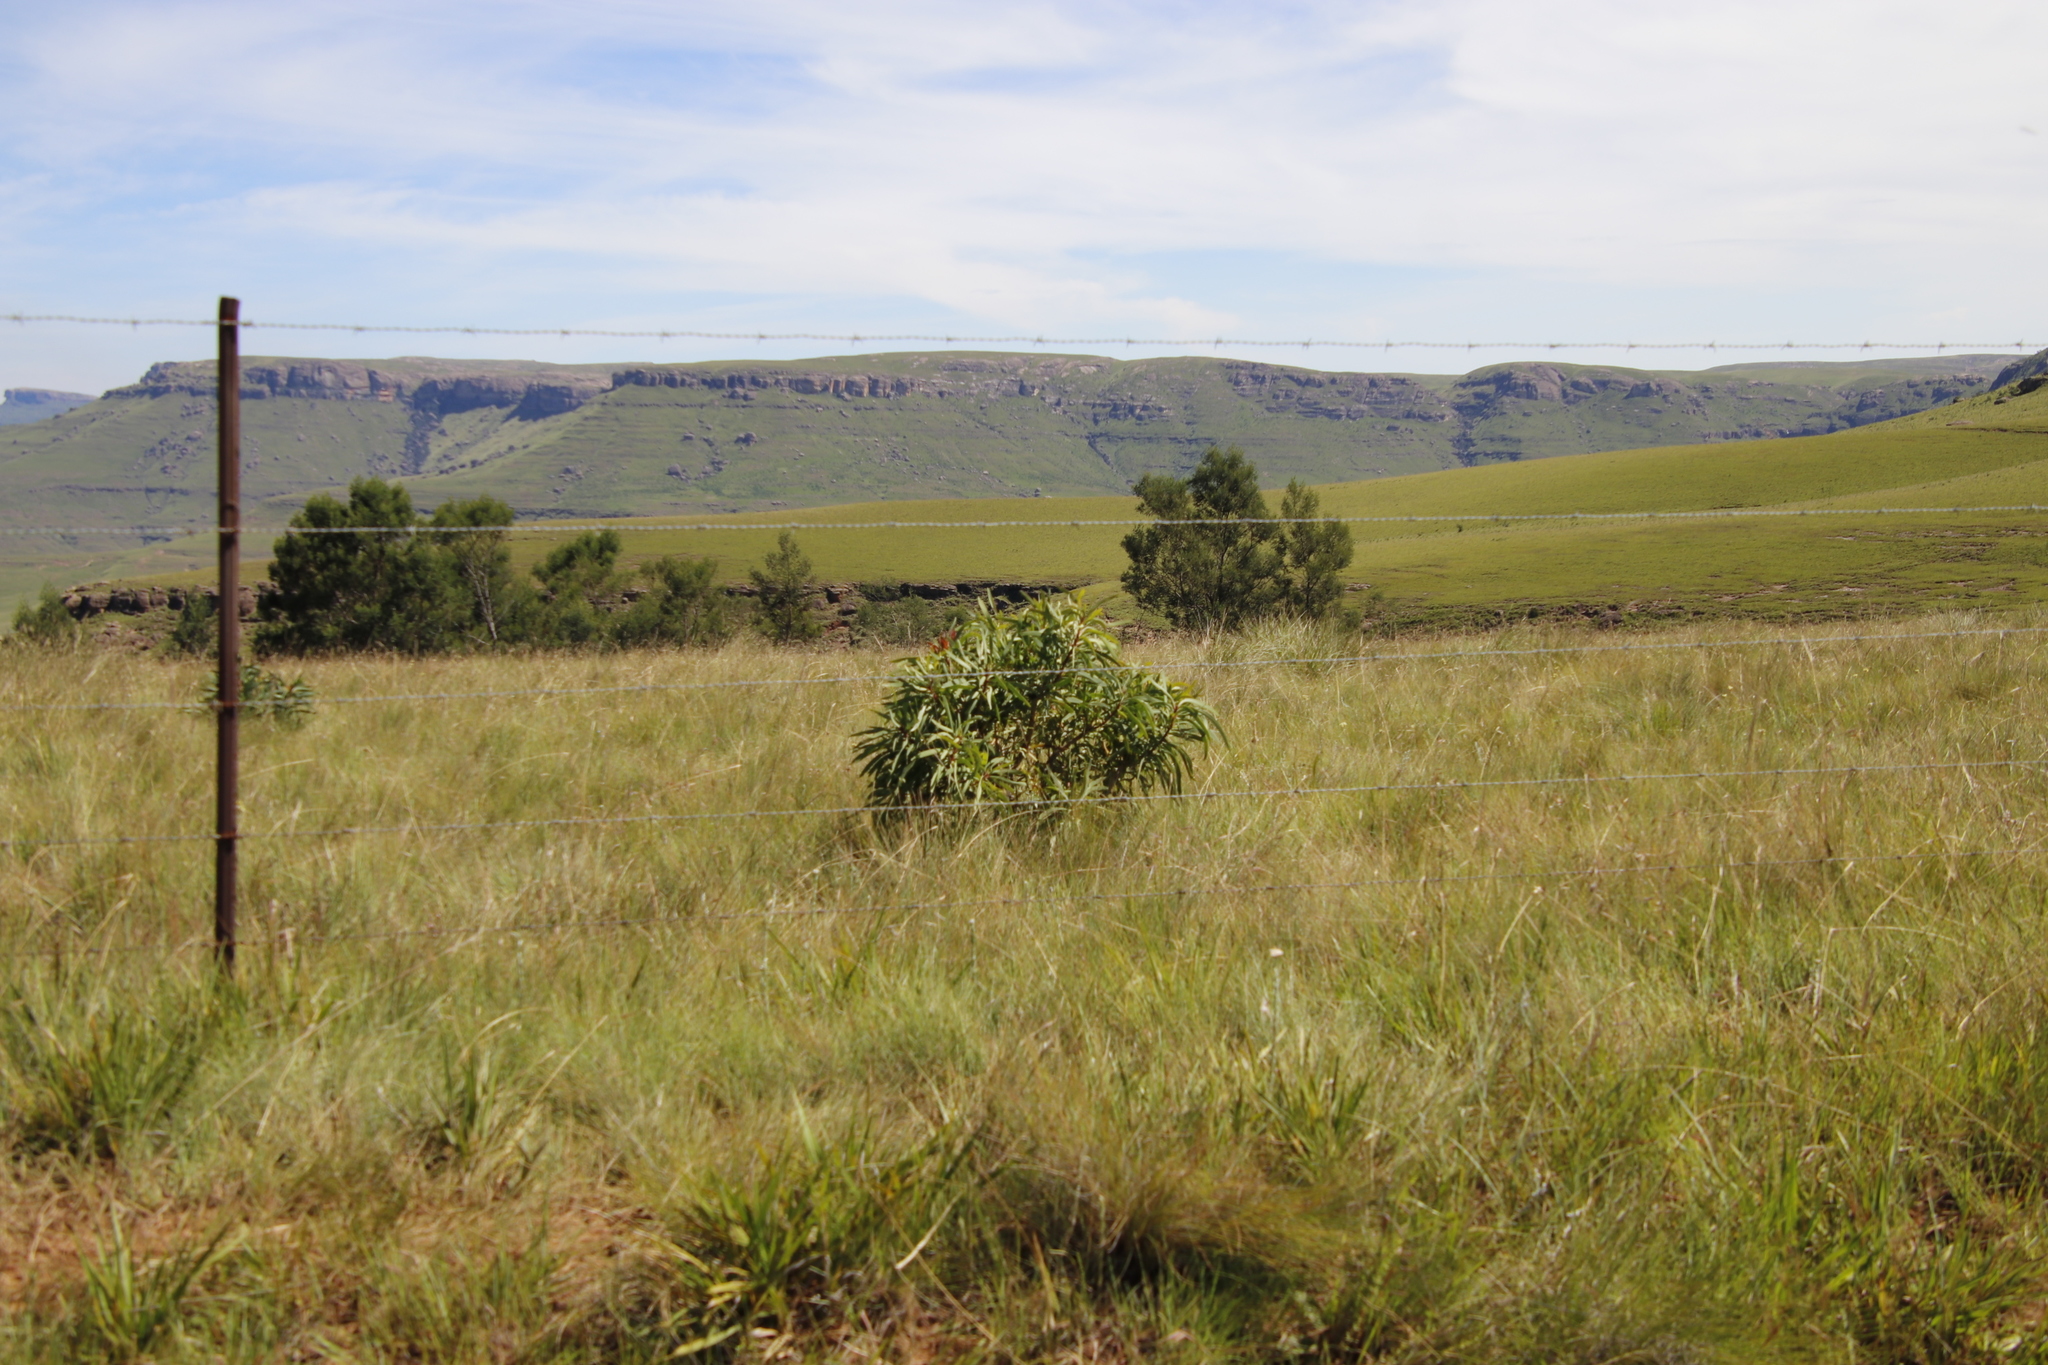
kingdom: Plantae
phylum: Tracheophyta
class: Magnoliopsida
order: Proteales
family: Proteaceae
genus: Protea
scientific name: Protea caffra
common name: Common sugarbush
